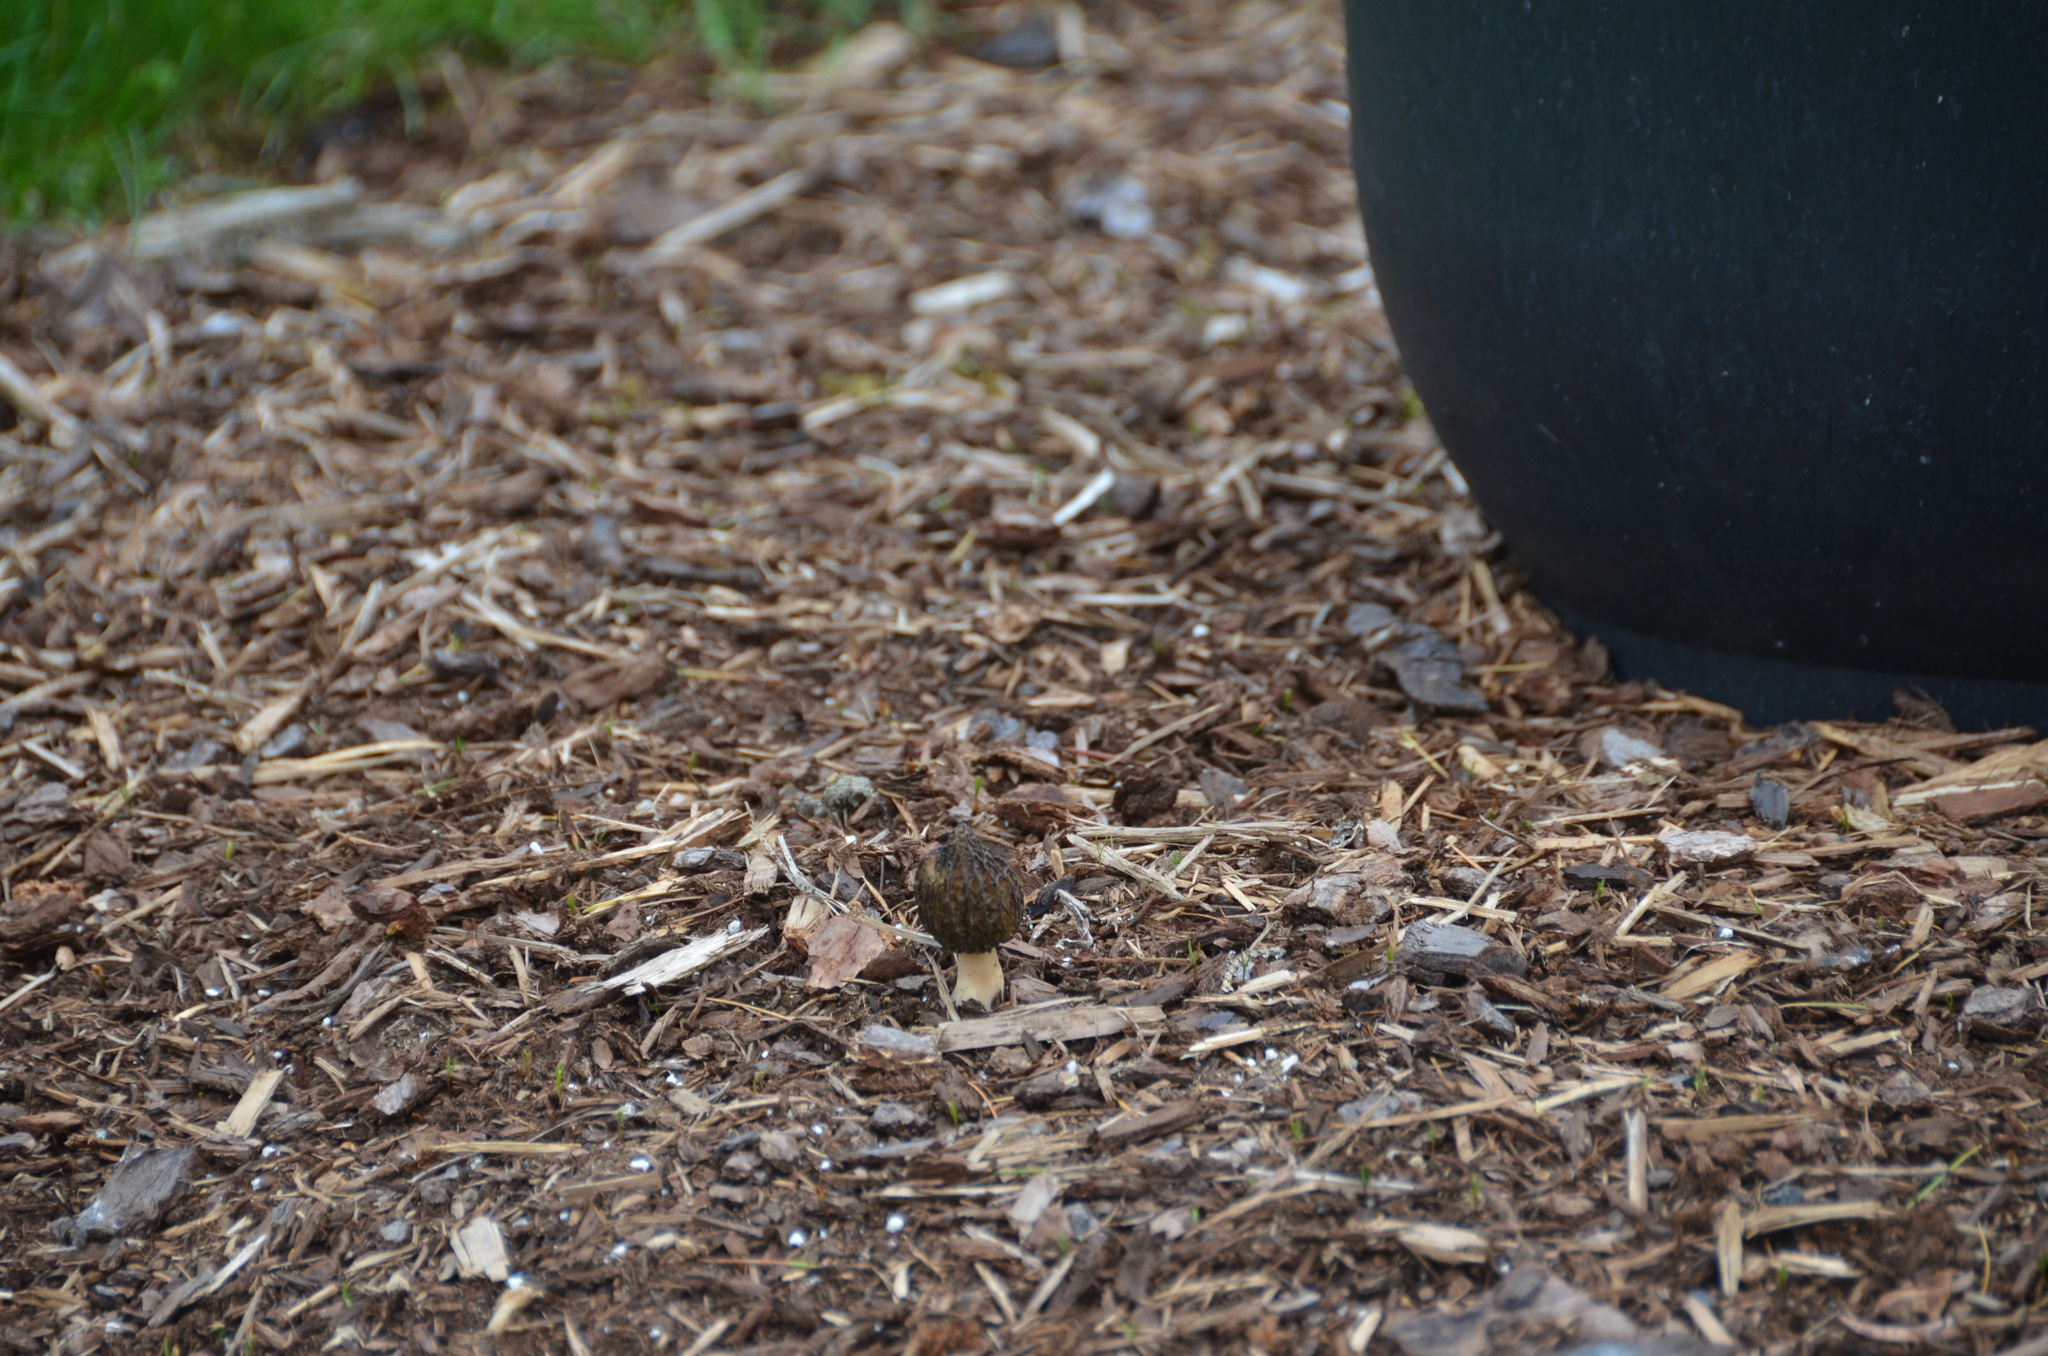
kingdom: Fungi
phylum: Ascomycota
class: Pezizomycetes
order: Pezizales
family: Morchellaceae
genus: Morchella
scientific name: Morchella importuna
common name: Landscaping black morel
